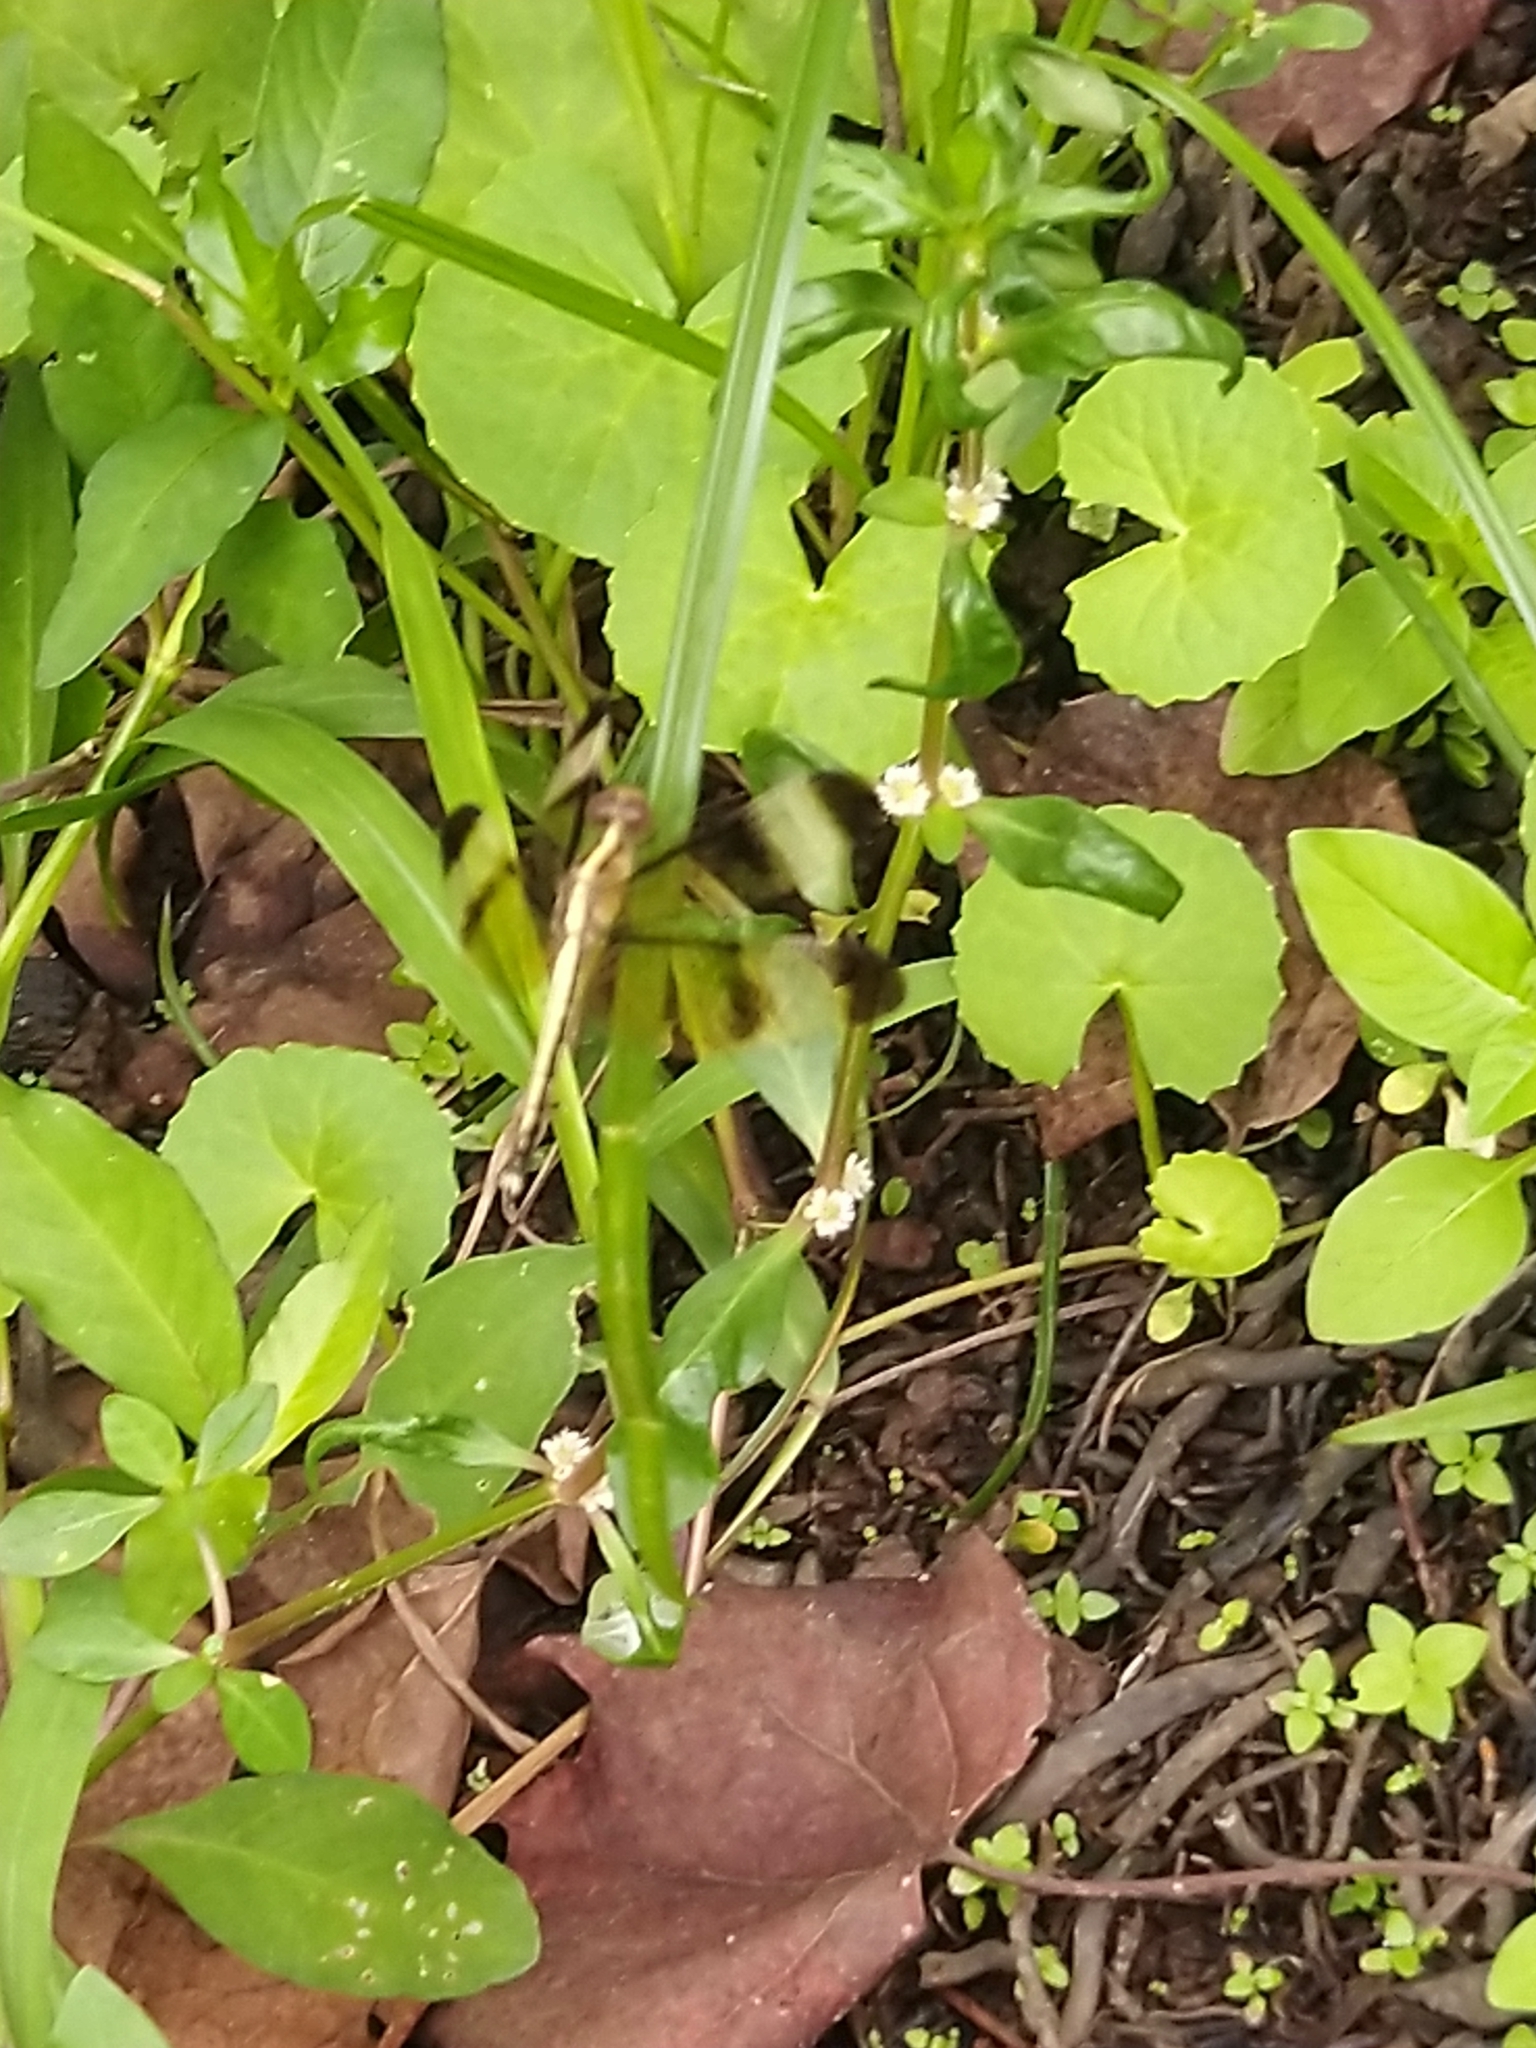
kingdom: Animalia
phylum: Arthropoda
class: Insecta
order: Odonata
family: Libellulidae
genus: Neurothemis
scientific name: Neurothemis tullia
